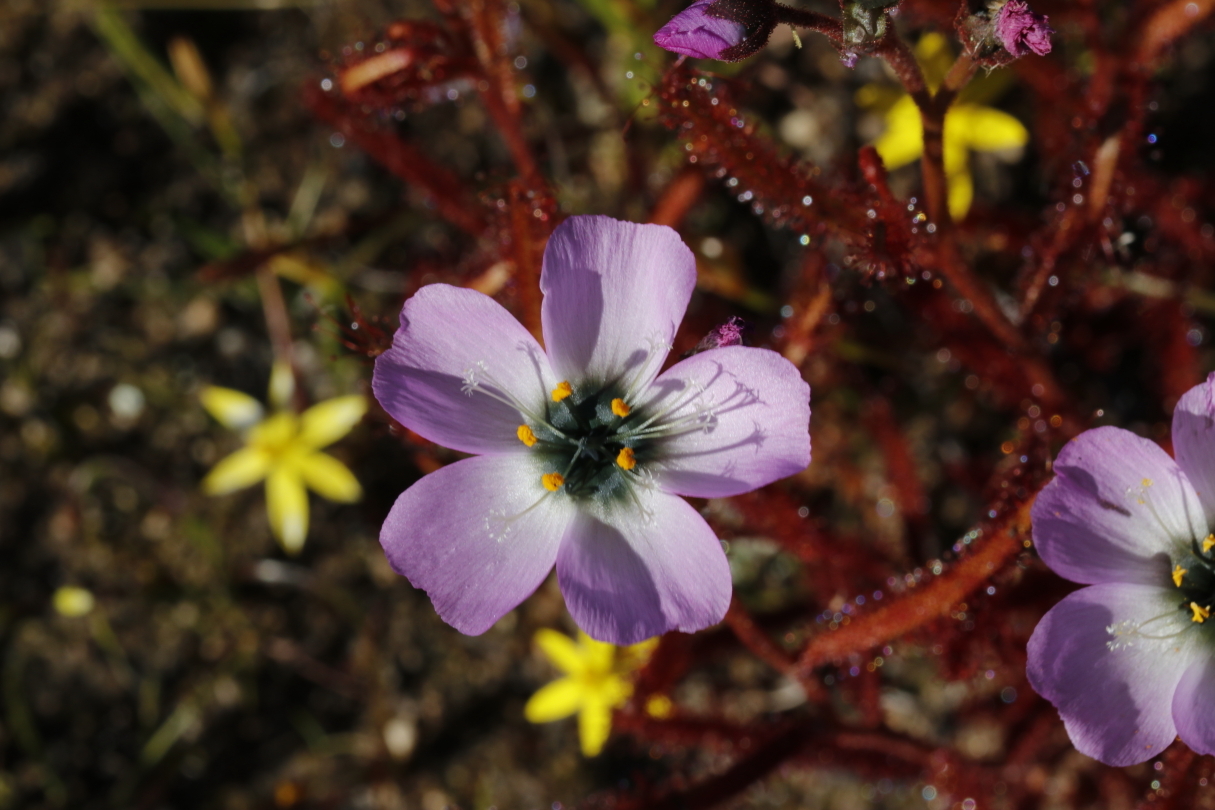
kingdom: Plantae
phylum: Tracheophyta
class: Magnoliopsida
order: Caryophyllales
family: Droseraceae
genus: Drosera
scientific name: Drosera cistiflora
